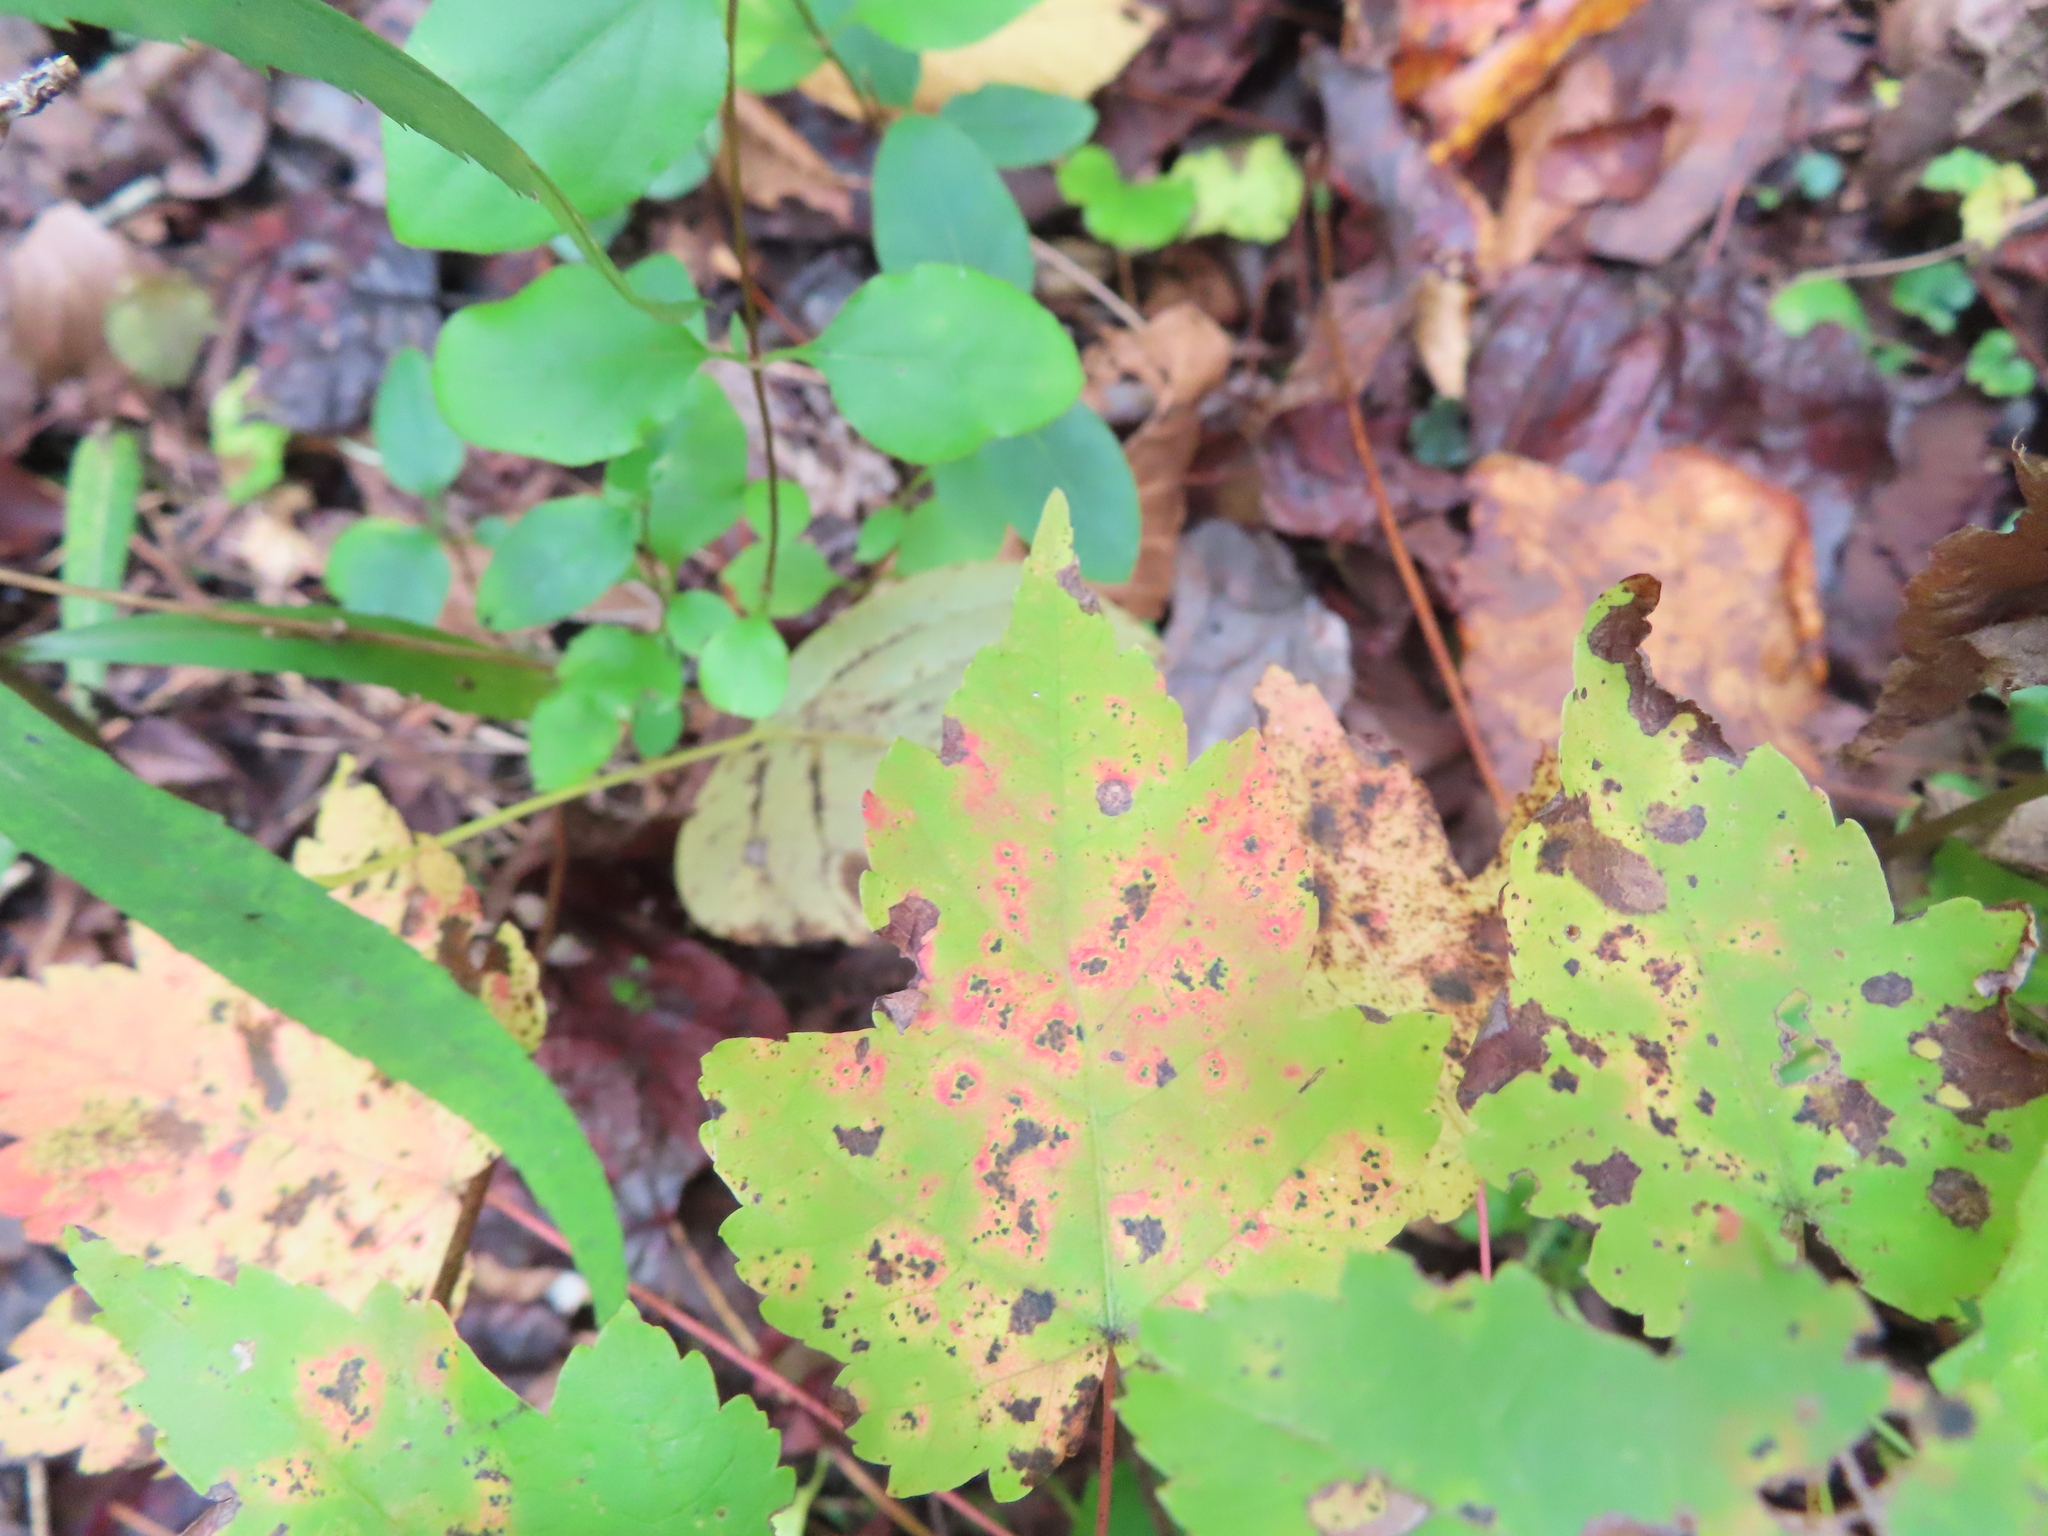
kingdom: Plantae
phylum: Tracheophyta
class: Magnoliopsida
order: Sapindales
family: Sapindaceae
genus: Acer
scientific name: Acer rubrum
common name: Red maple
